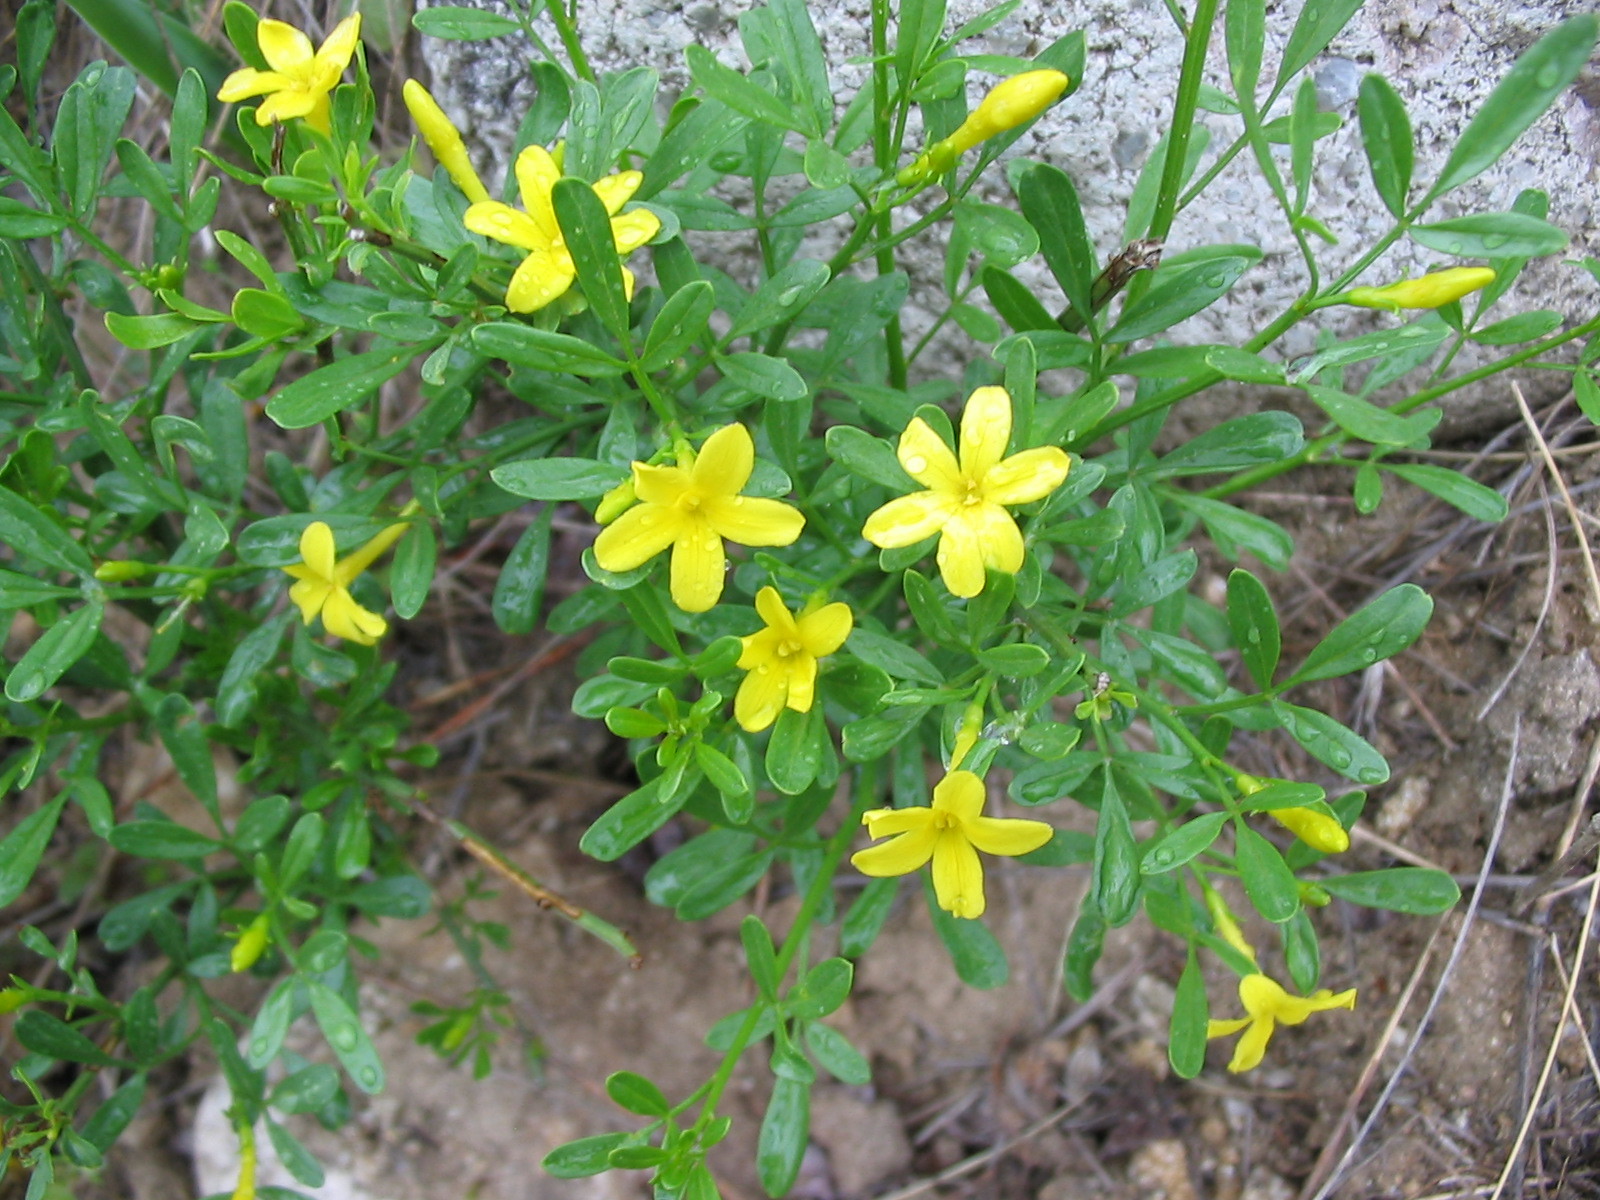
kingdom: Plantae
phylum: Tracheophyta
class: Magnoliopsida
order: Lamiales
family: Oleaceae
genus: Chrysojasminum
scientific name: Chrysojasminum fruticans
